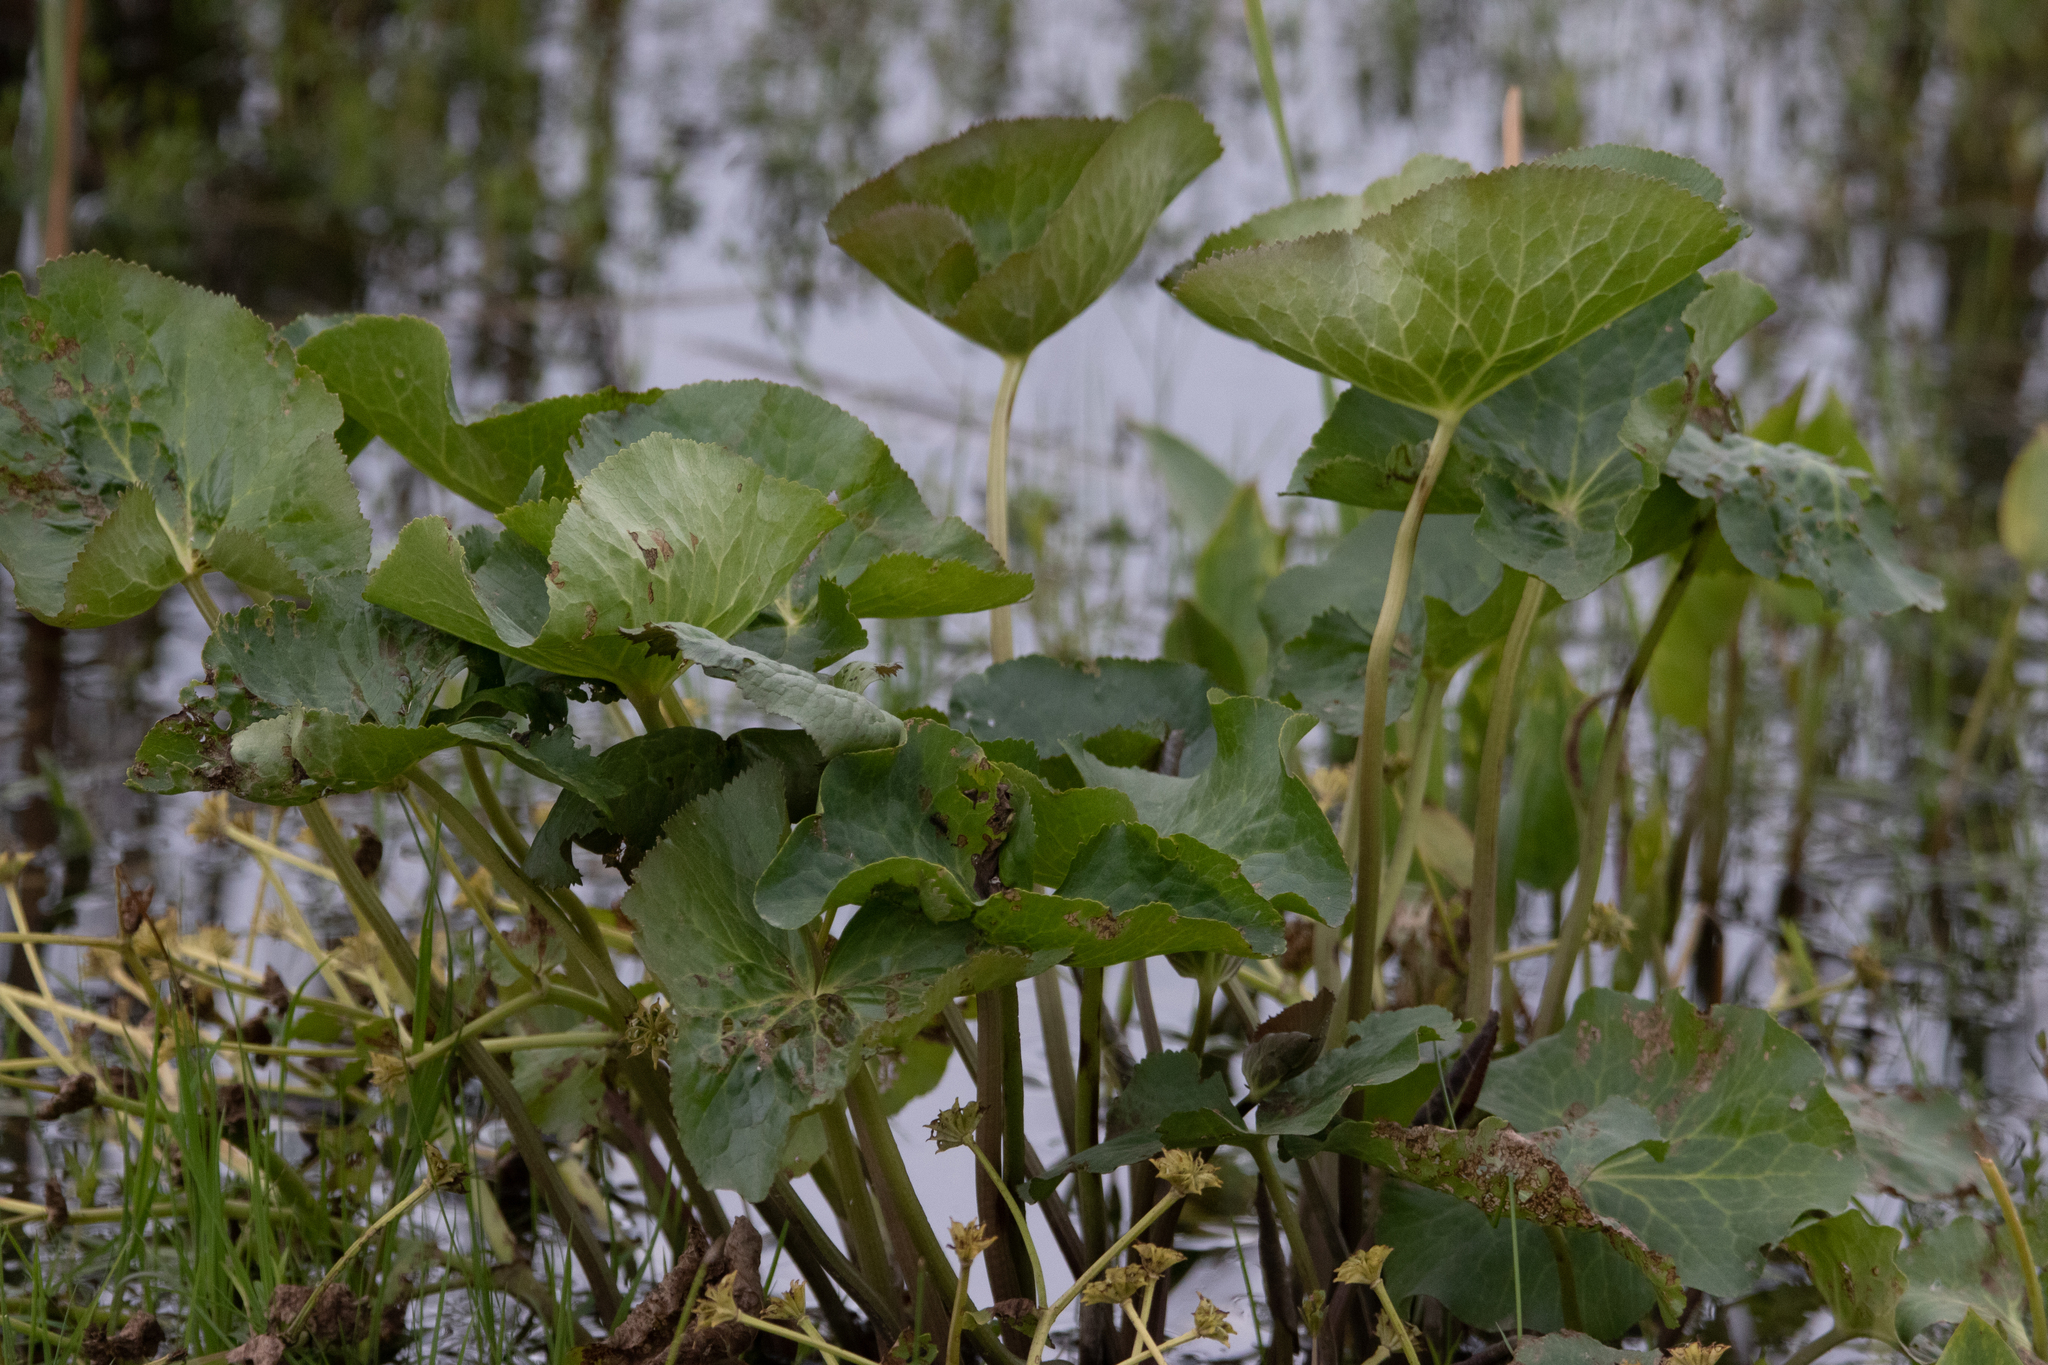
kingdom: Plantae
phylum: Tracheophyta
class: Magnoliopsida
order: Ranunculales
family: Ranunculaceae
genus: Caltha
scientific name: Caltha palustris
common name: Marsh marigold
